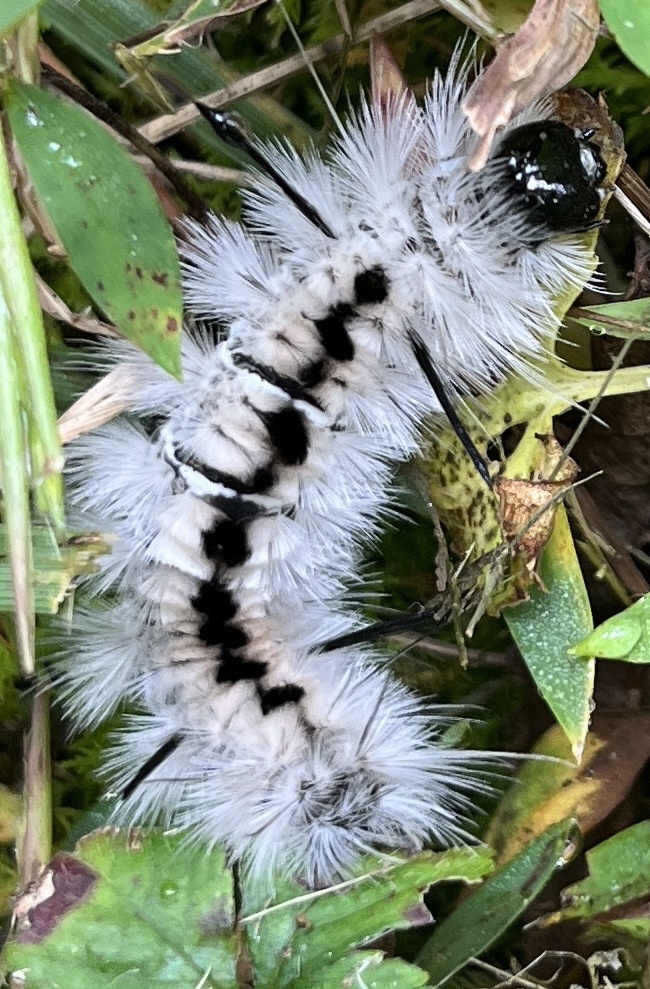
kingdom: Animalia
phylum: Arthropoda
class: Insecta
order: Lepidoptera
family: Erebidae
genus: Lophocampa
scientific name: Lophocampa caryae
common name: Hickory tussock moth
